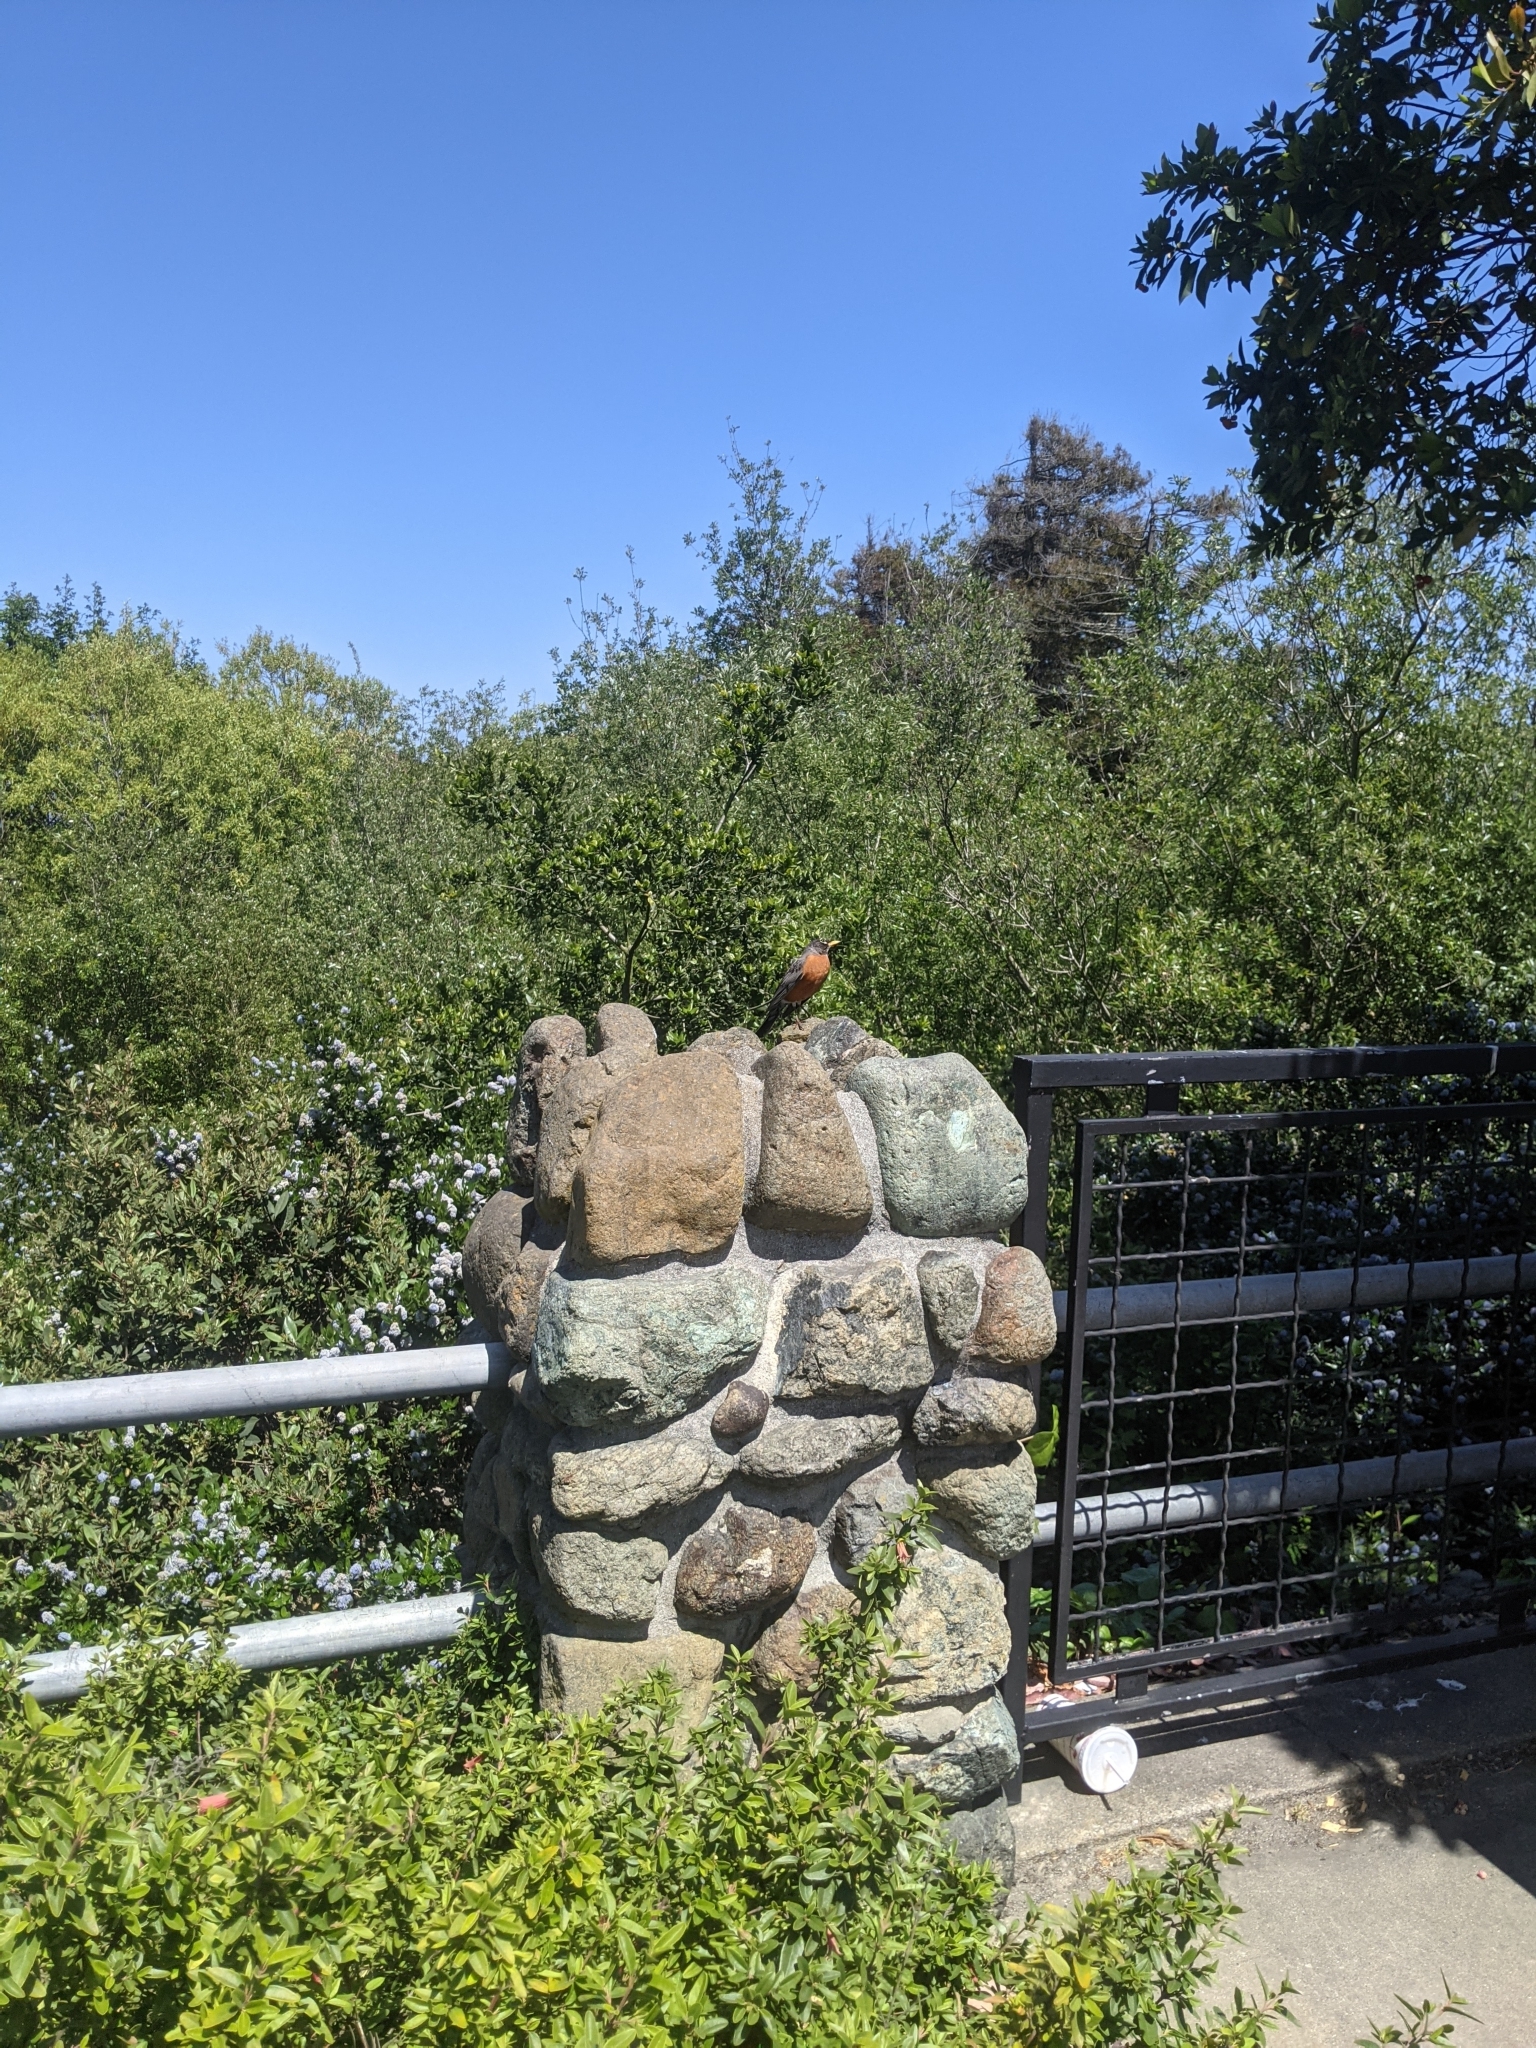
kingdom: Animalia
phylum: Chordata
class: Aves
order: Passeriformes
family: Turdidae
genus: Turdus
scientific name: Turdus migratorius
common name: American robin
